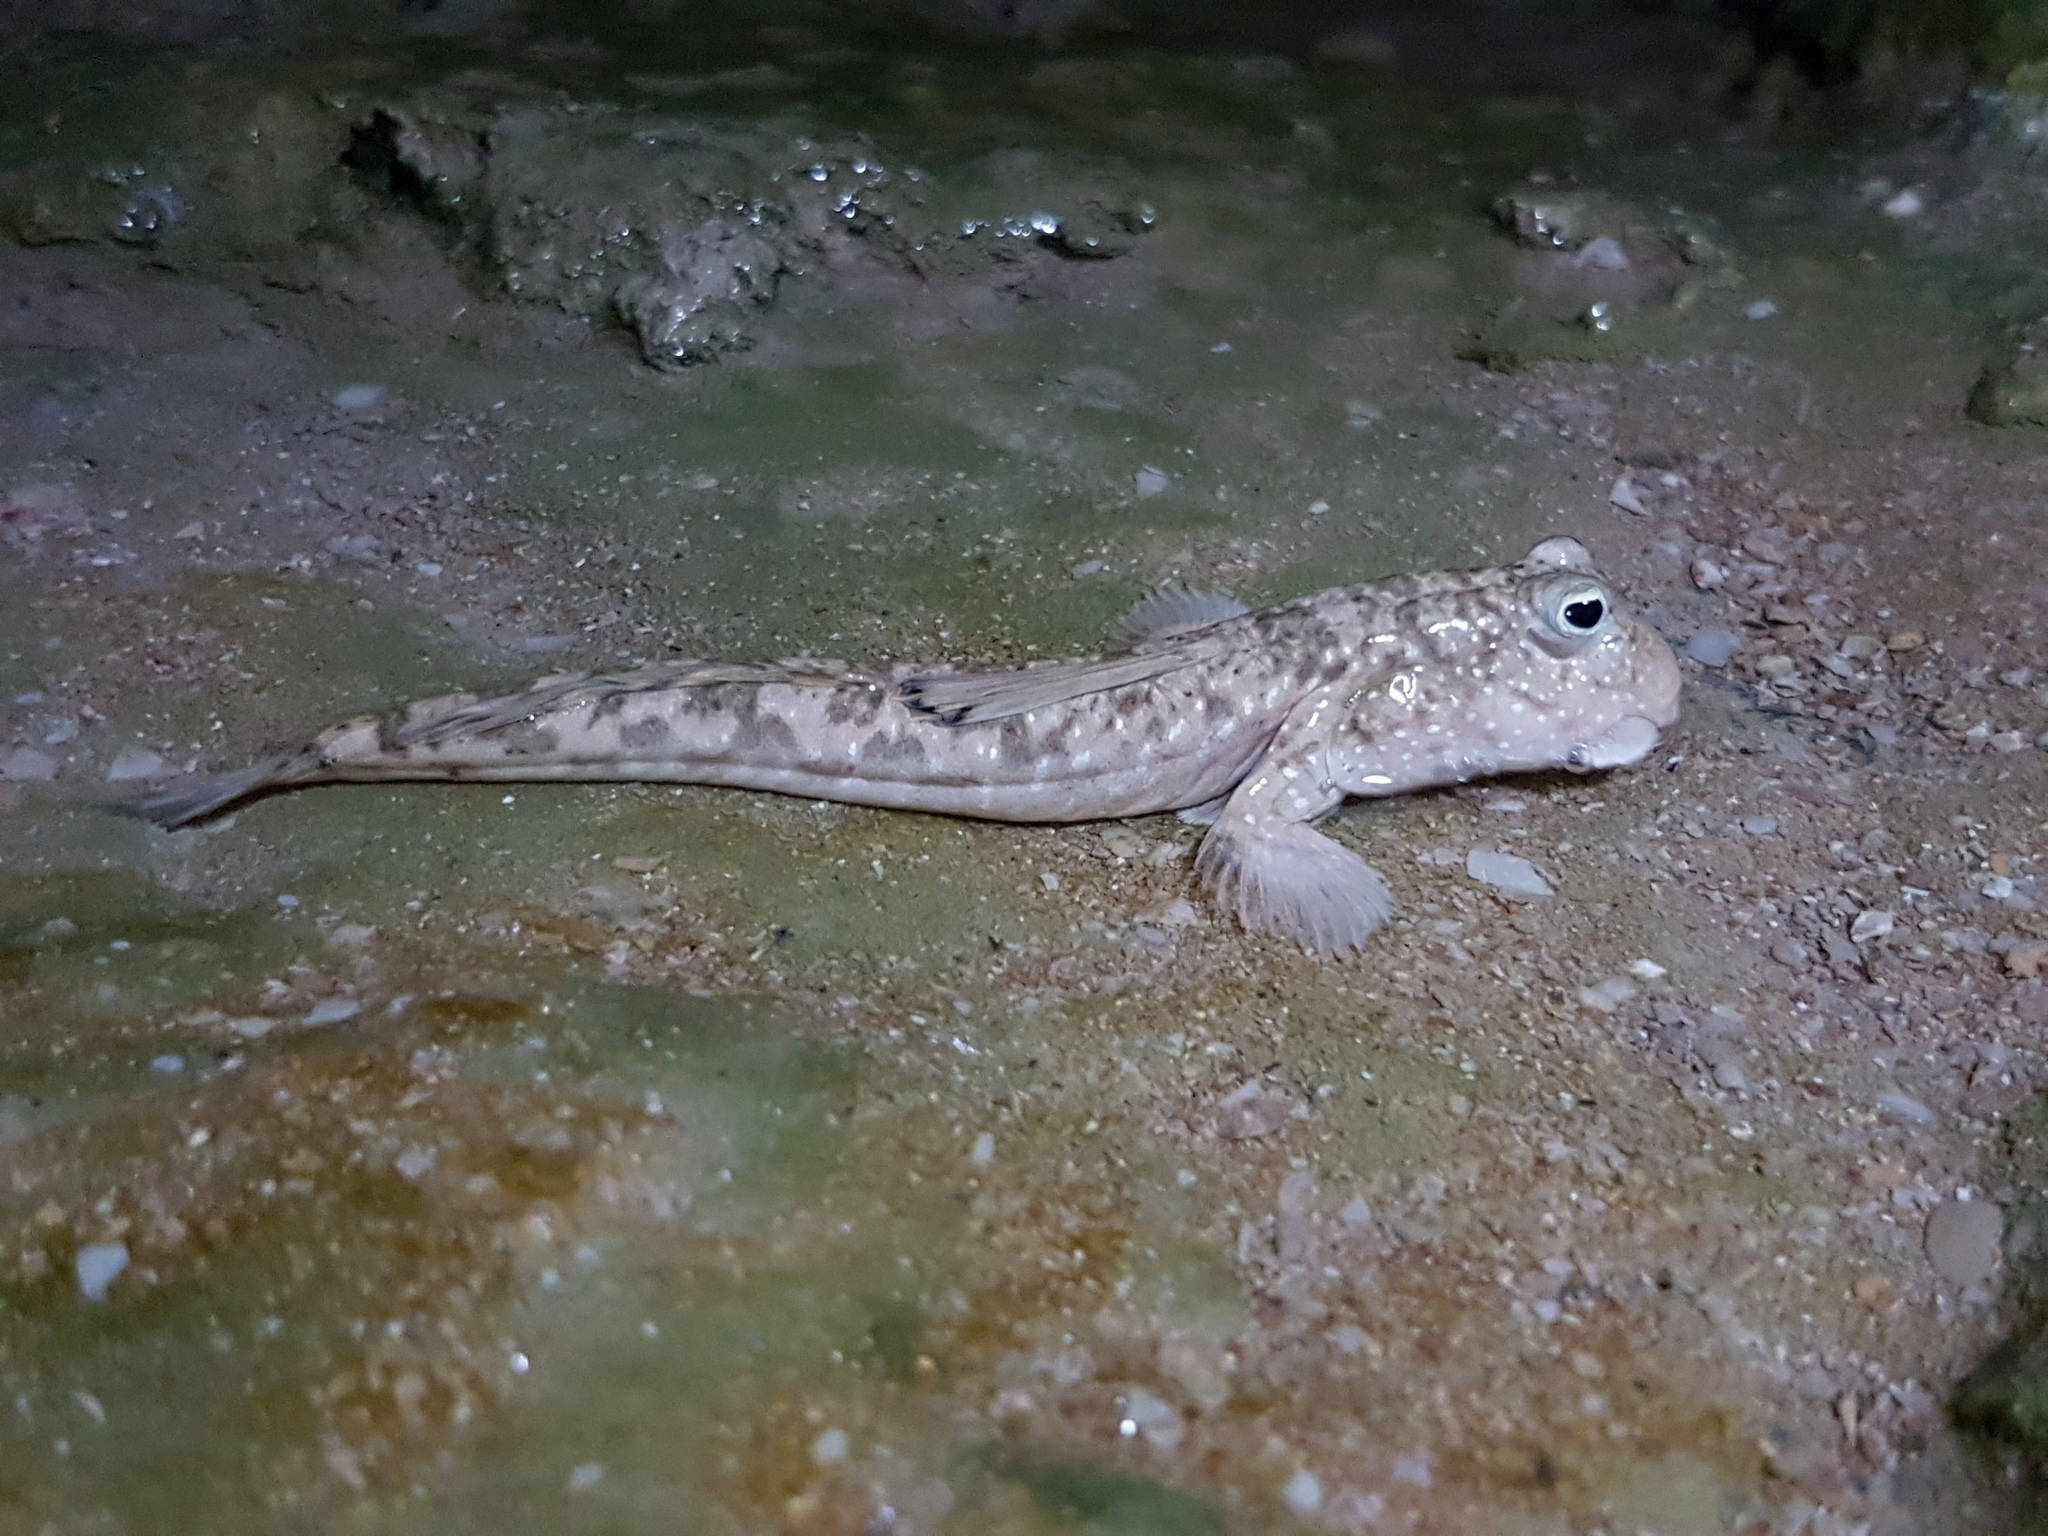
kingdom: Animalia
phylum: Chordata
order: Perciformes
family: Gobiidae
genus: Periophthalmus
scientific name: Periophthalmus waltoni
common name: Walton's mudskipper
